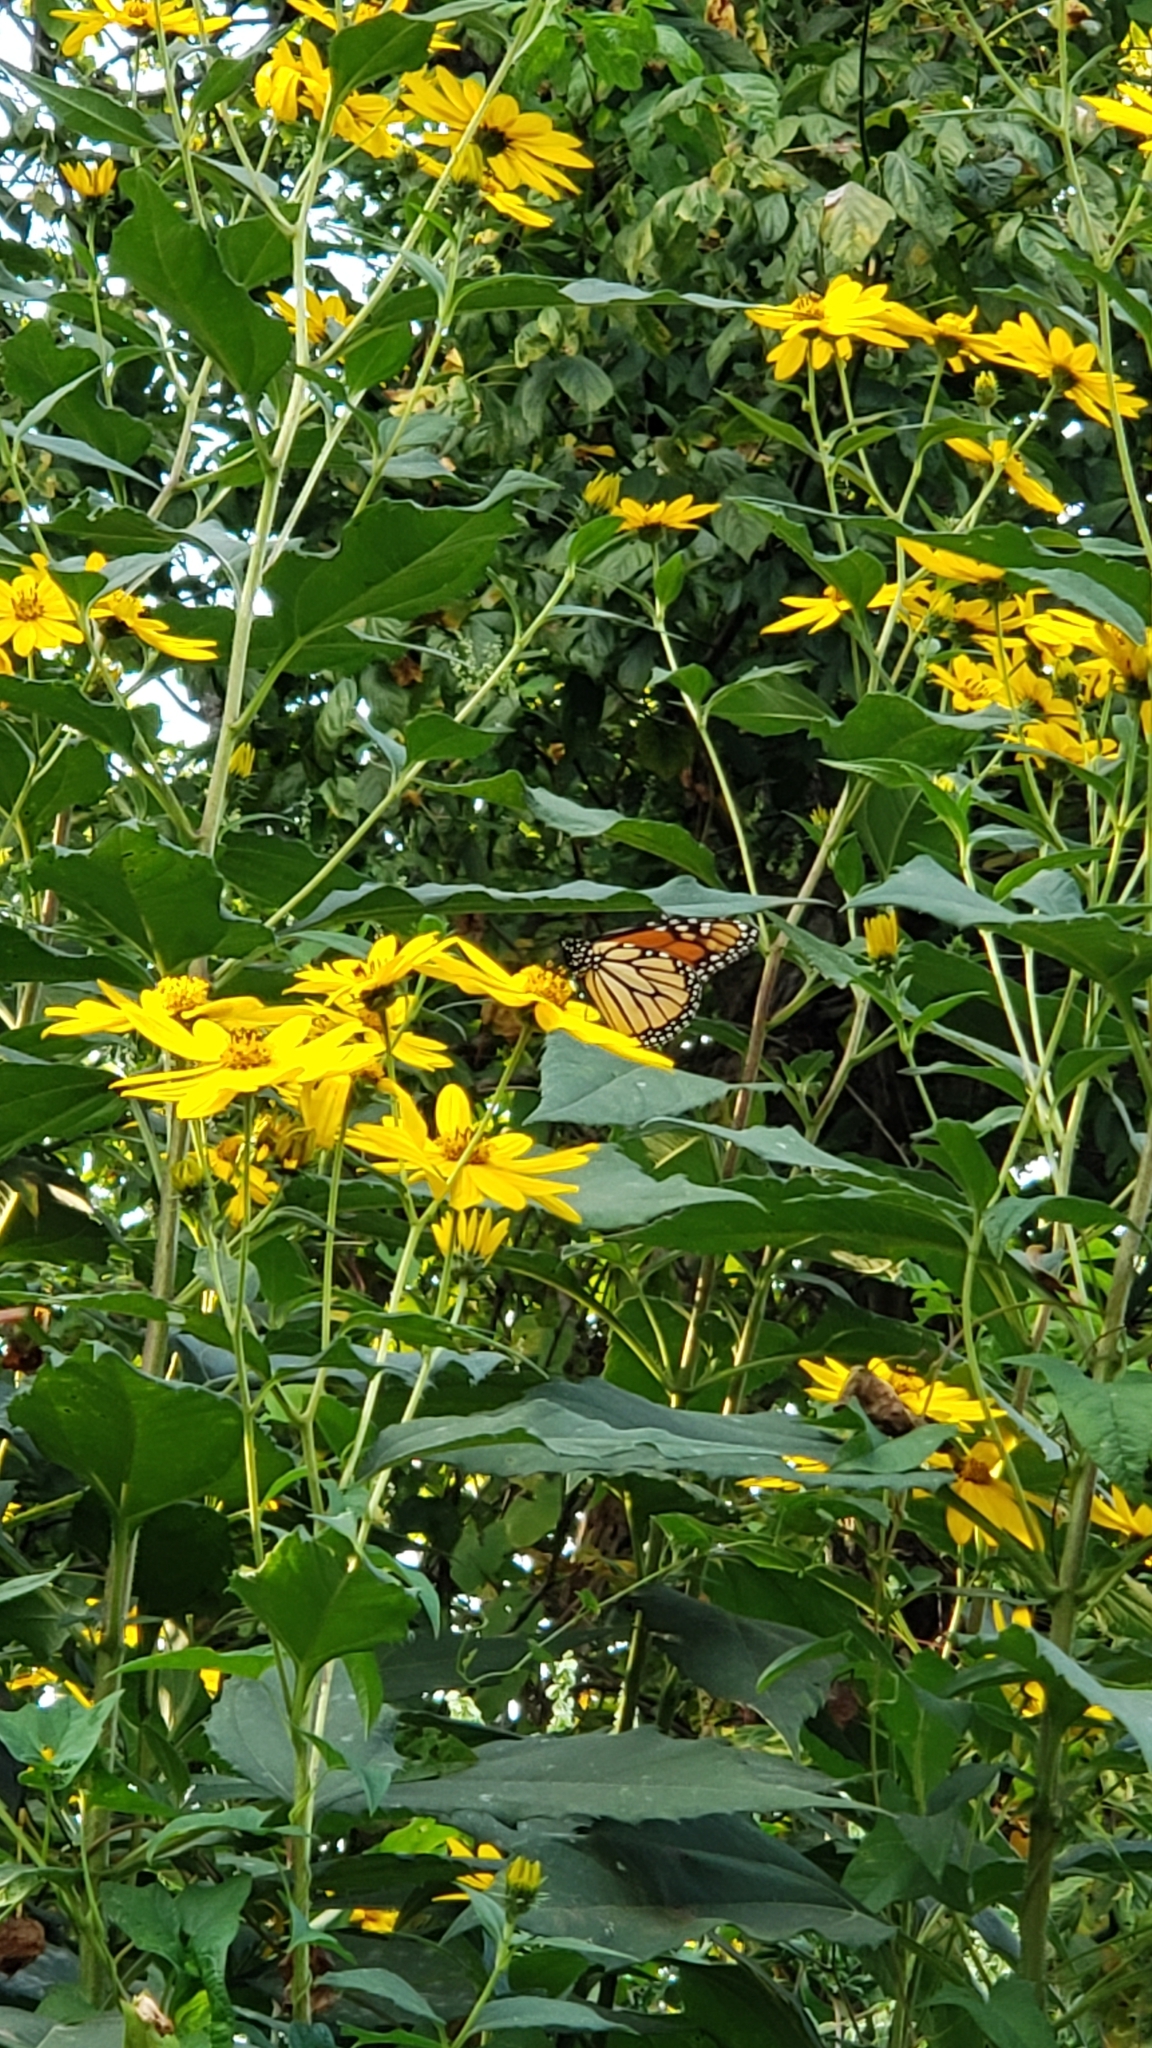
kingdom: Animalia
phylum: Arthropoda
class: Insecta
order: Lepidoptera
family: Nymphalidae
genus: Danaus
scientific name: Danaus plexippus
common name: Monarch
